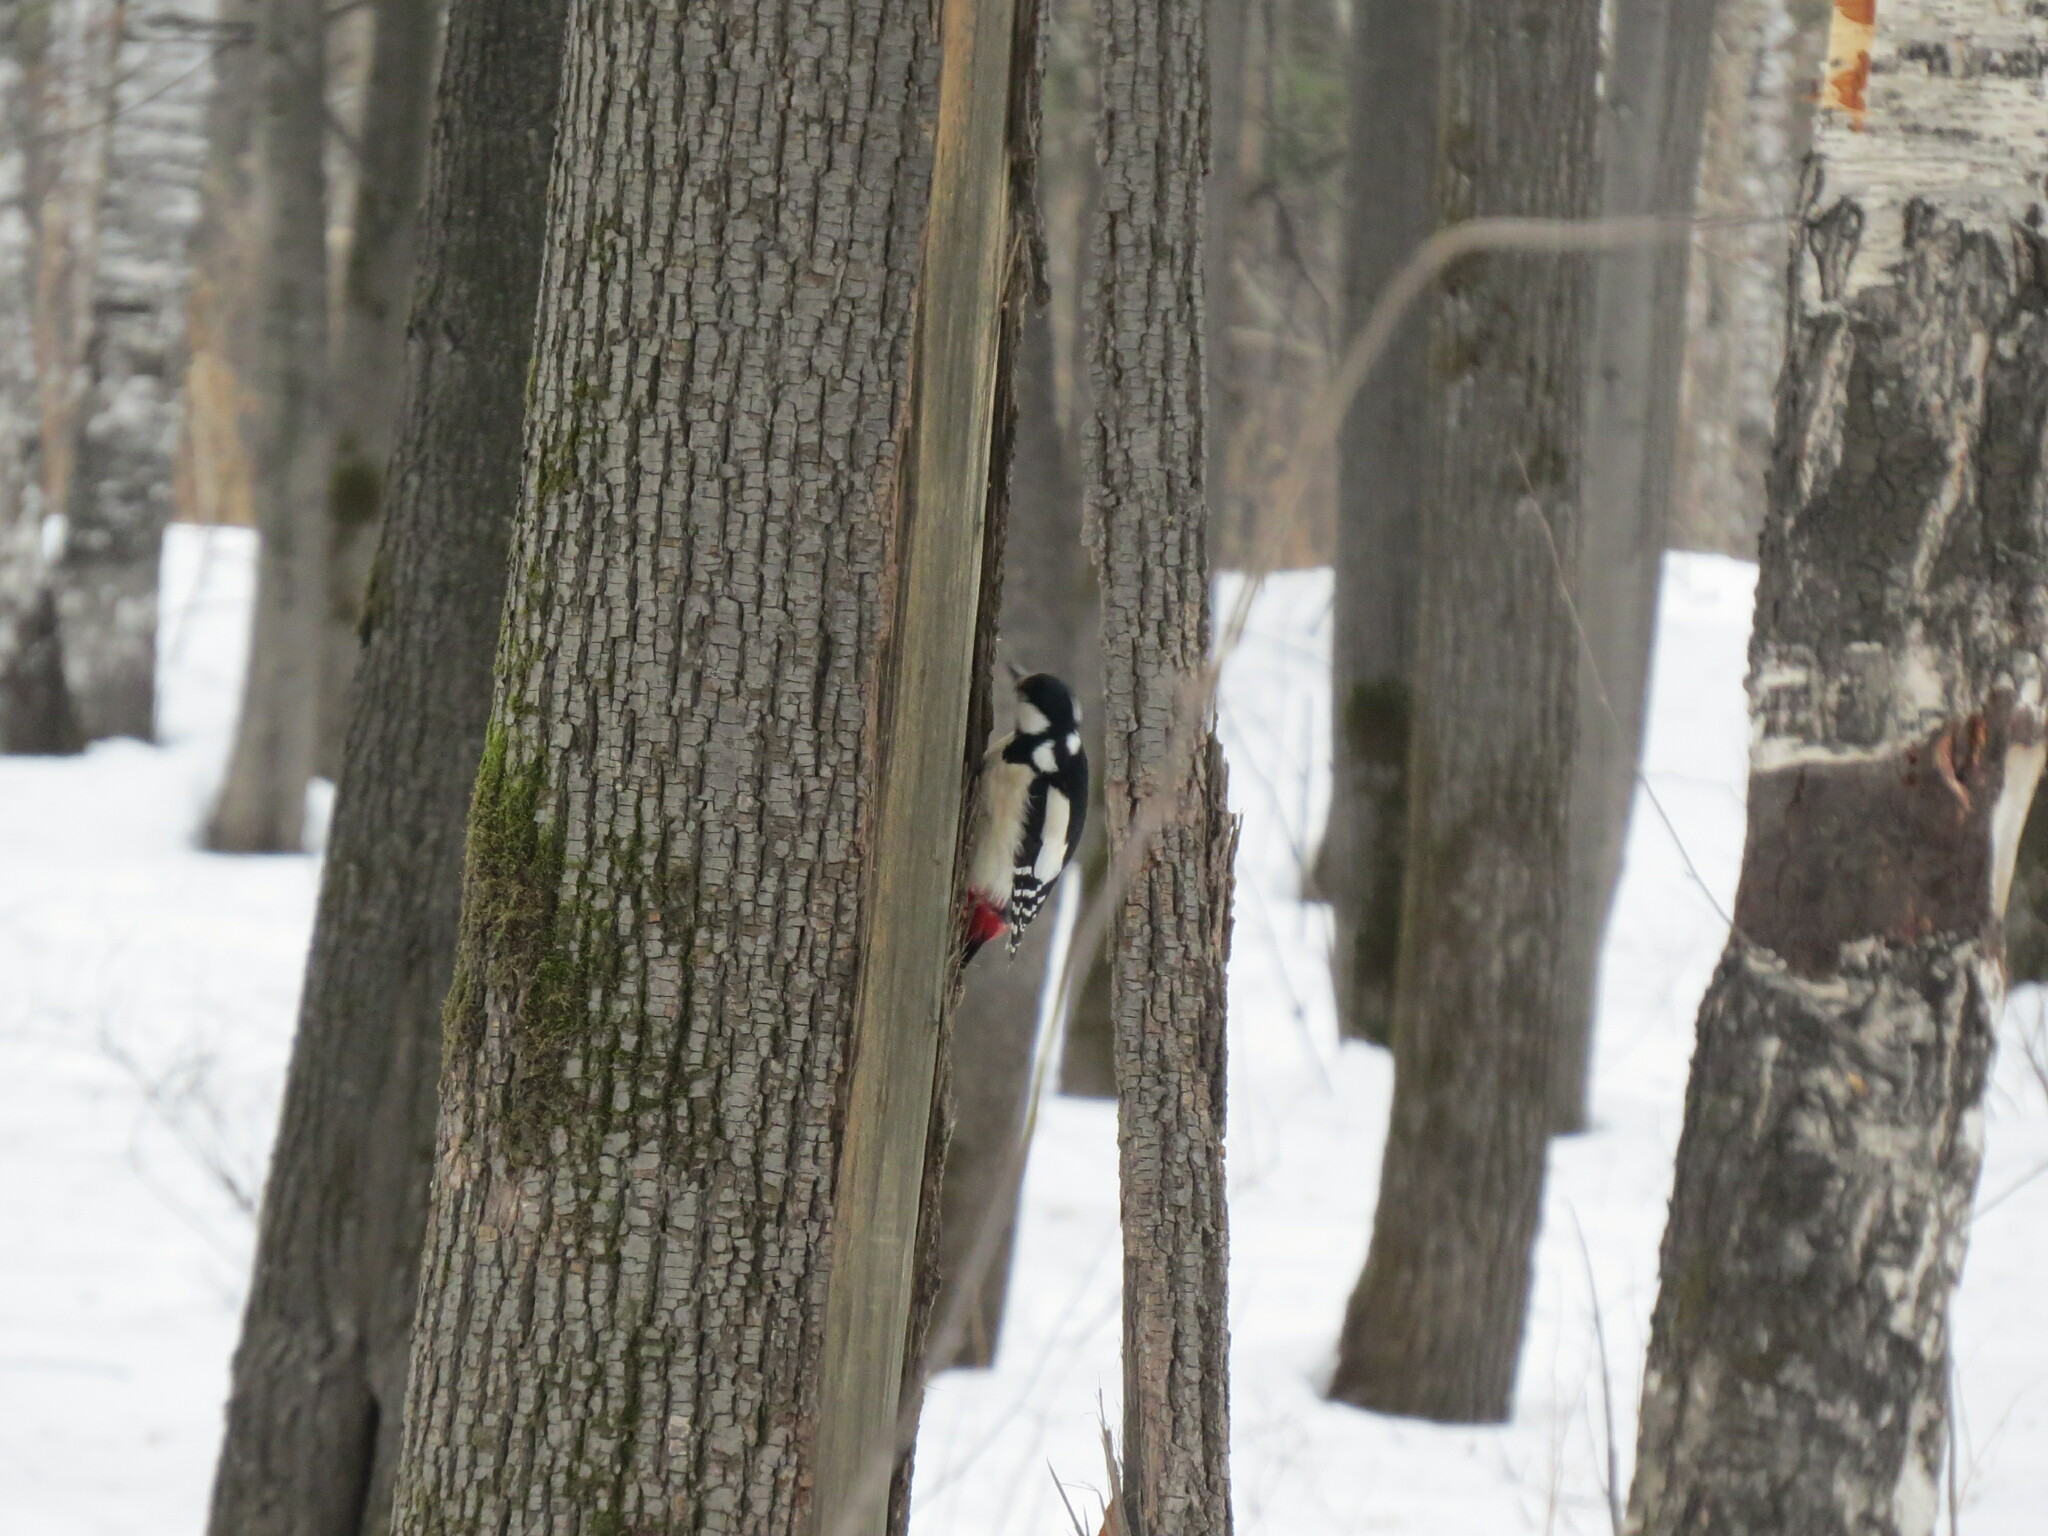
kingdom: Animalia
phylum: Chordata
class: Aves
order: Piciformes
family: Picidae
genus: Dendrocopos
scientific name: Dendrocopos major
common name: Great spotted woodpecker
